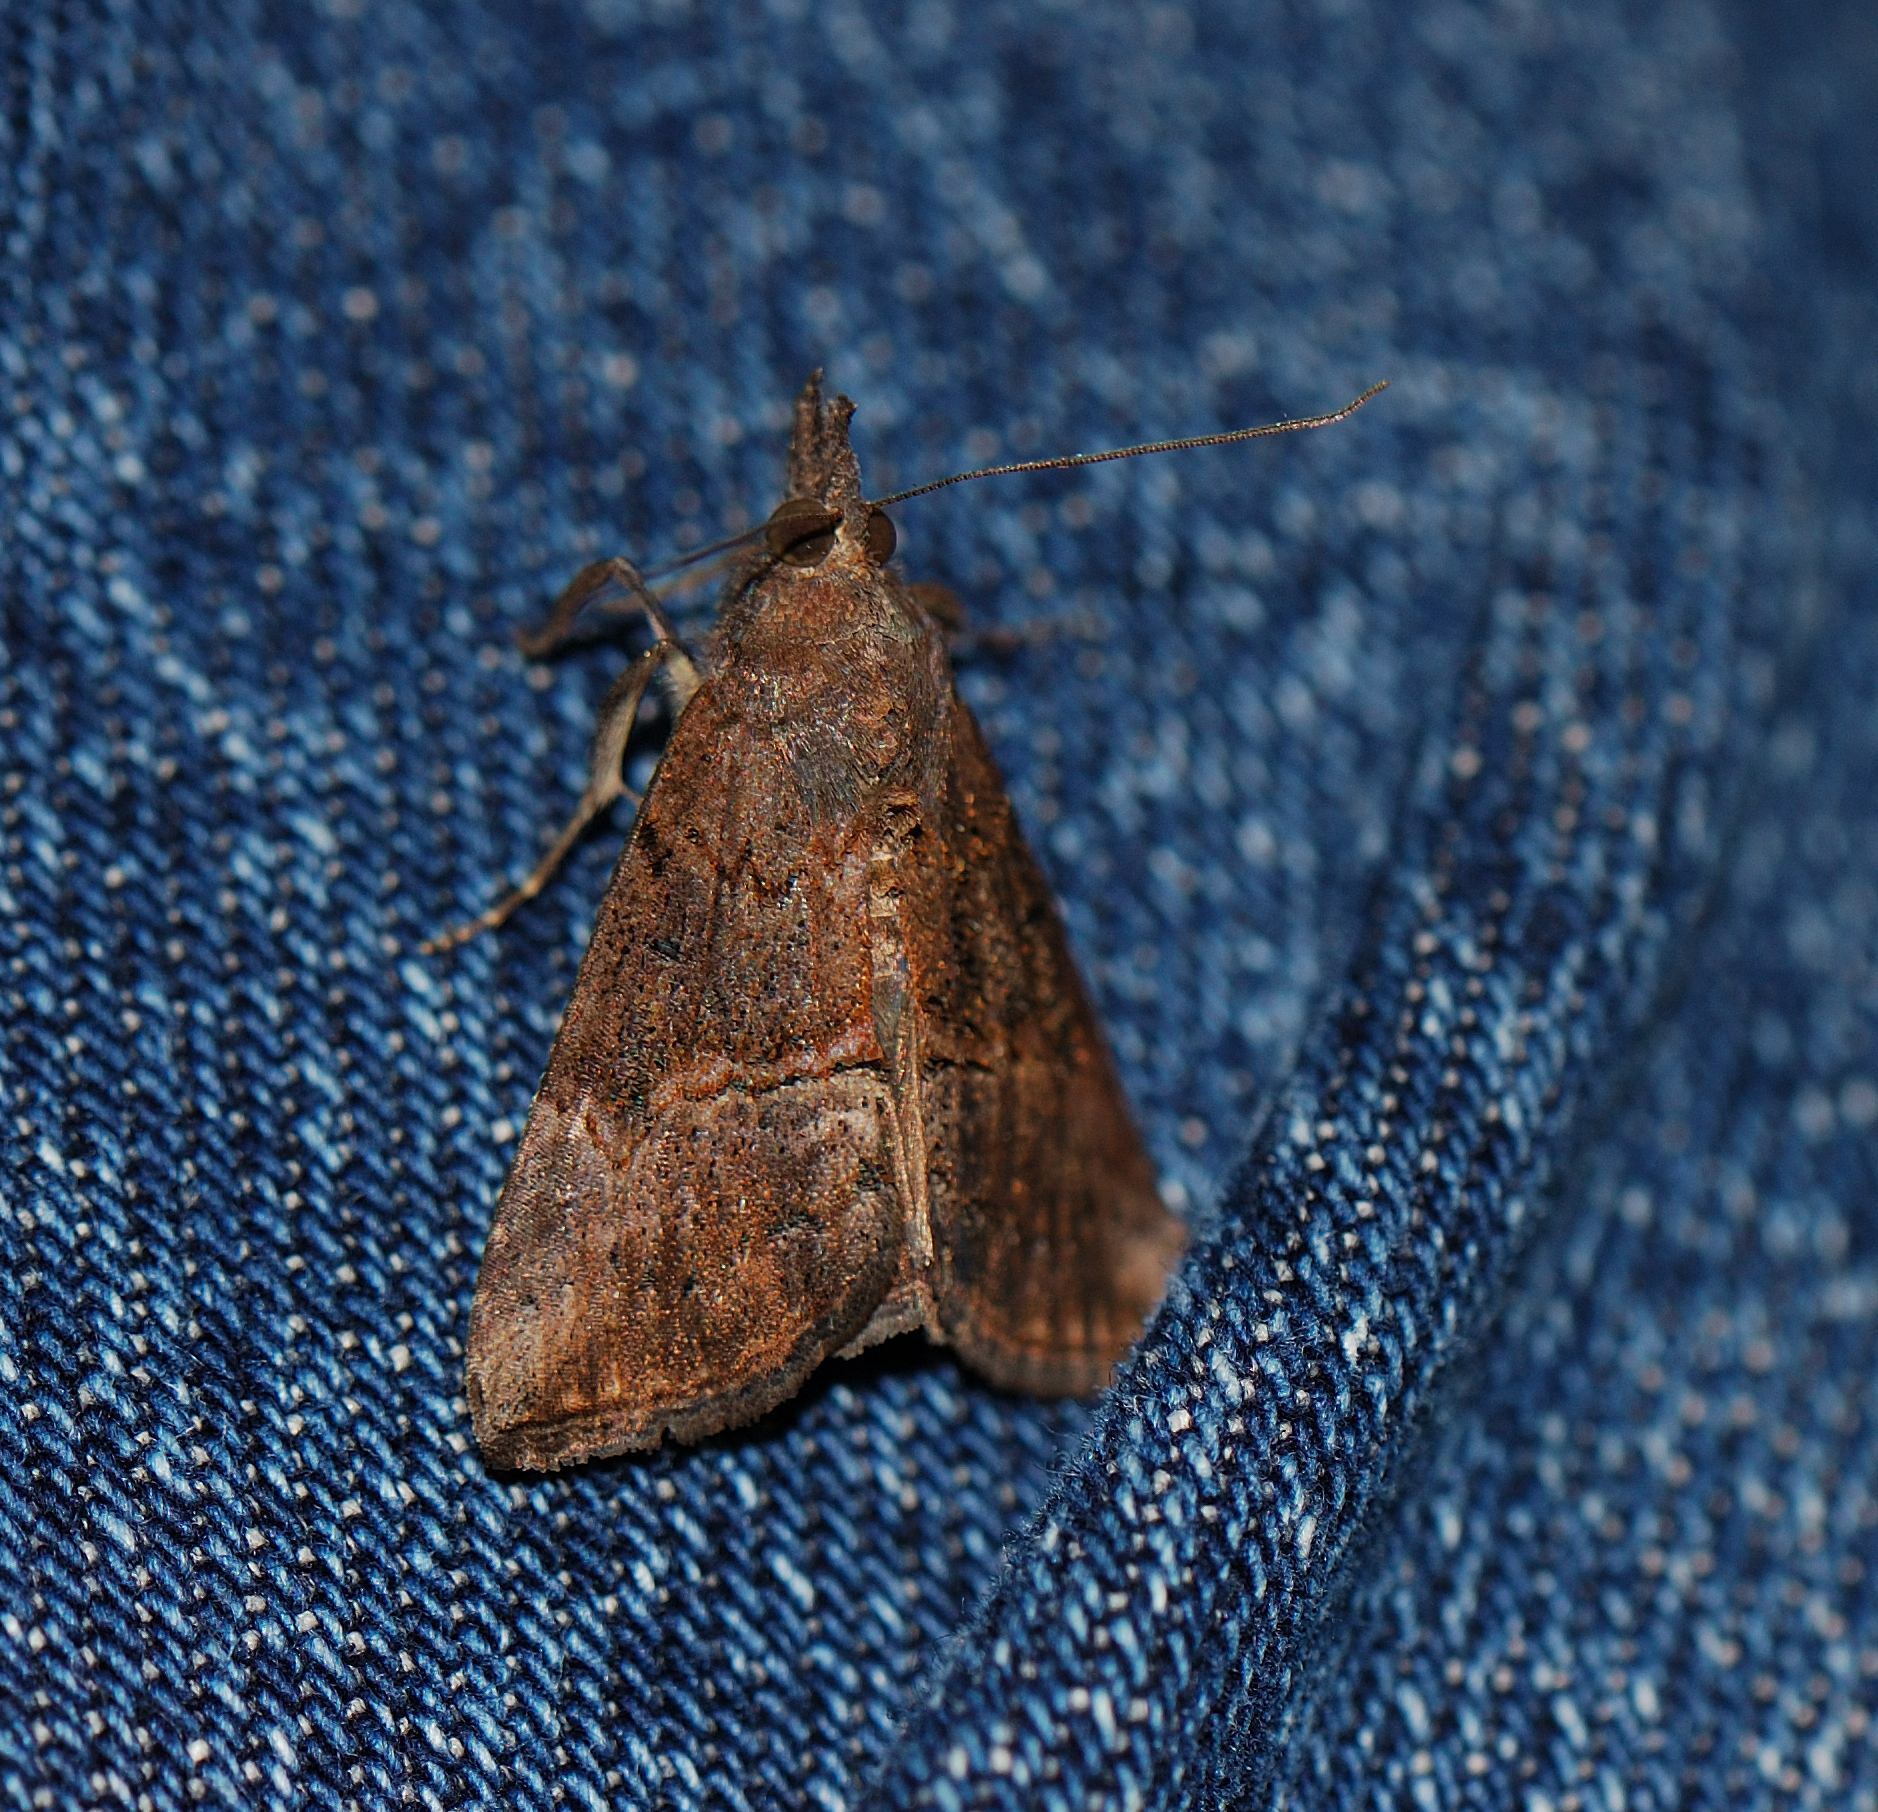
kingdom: Animalia
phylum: Arthropoda
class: Insecta
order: Lepidoptera
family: Erebidae
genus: Hypena
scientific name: Hypena scabra
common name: Green cloverworm
